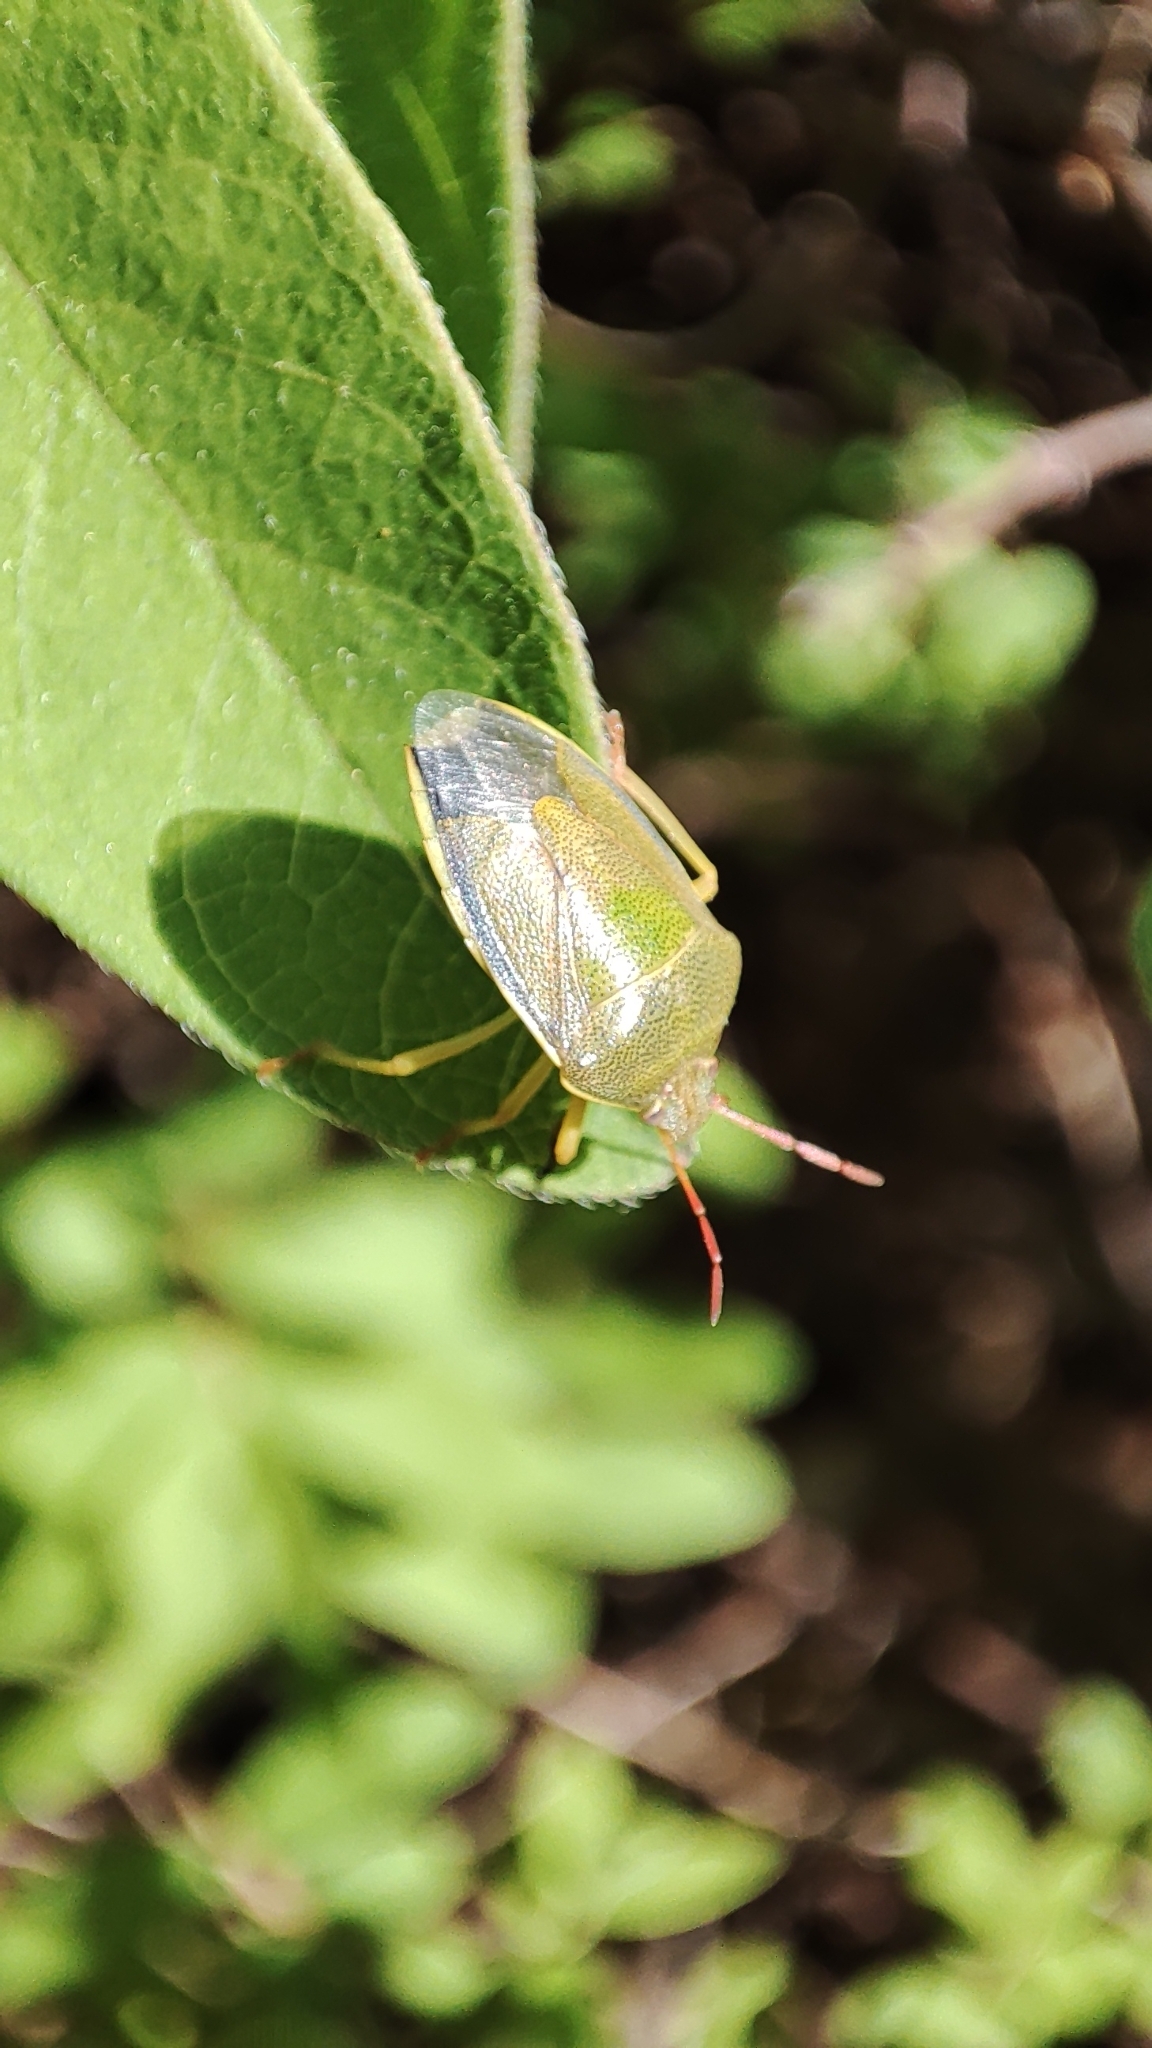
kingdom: Animalia
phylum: Arthropoda
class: Insecta
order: Hemiptera
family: Pentatomidae
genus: Piezodorus
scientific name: Piezodorus lituratus
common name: Stink bug
